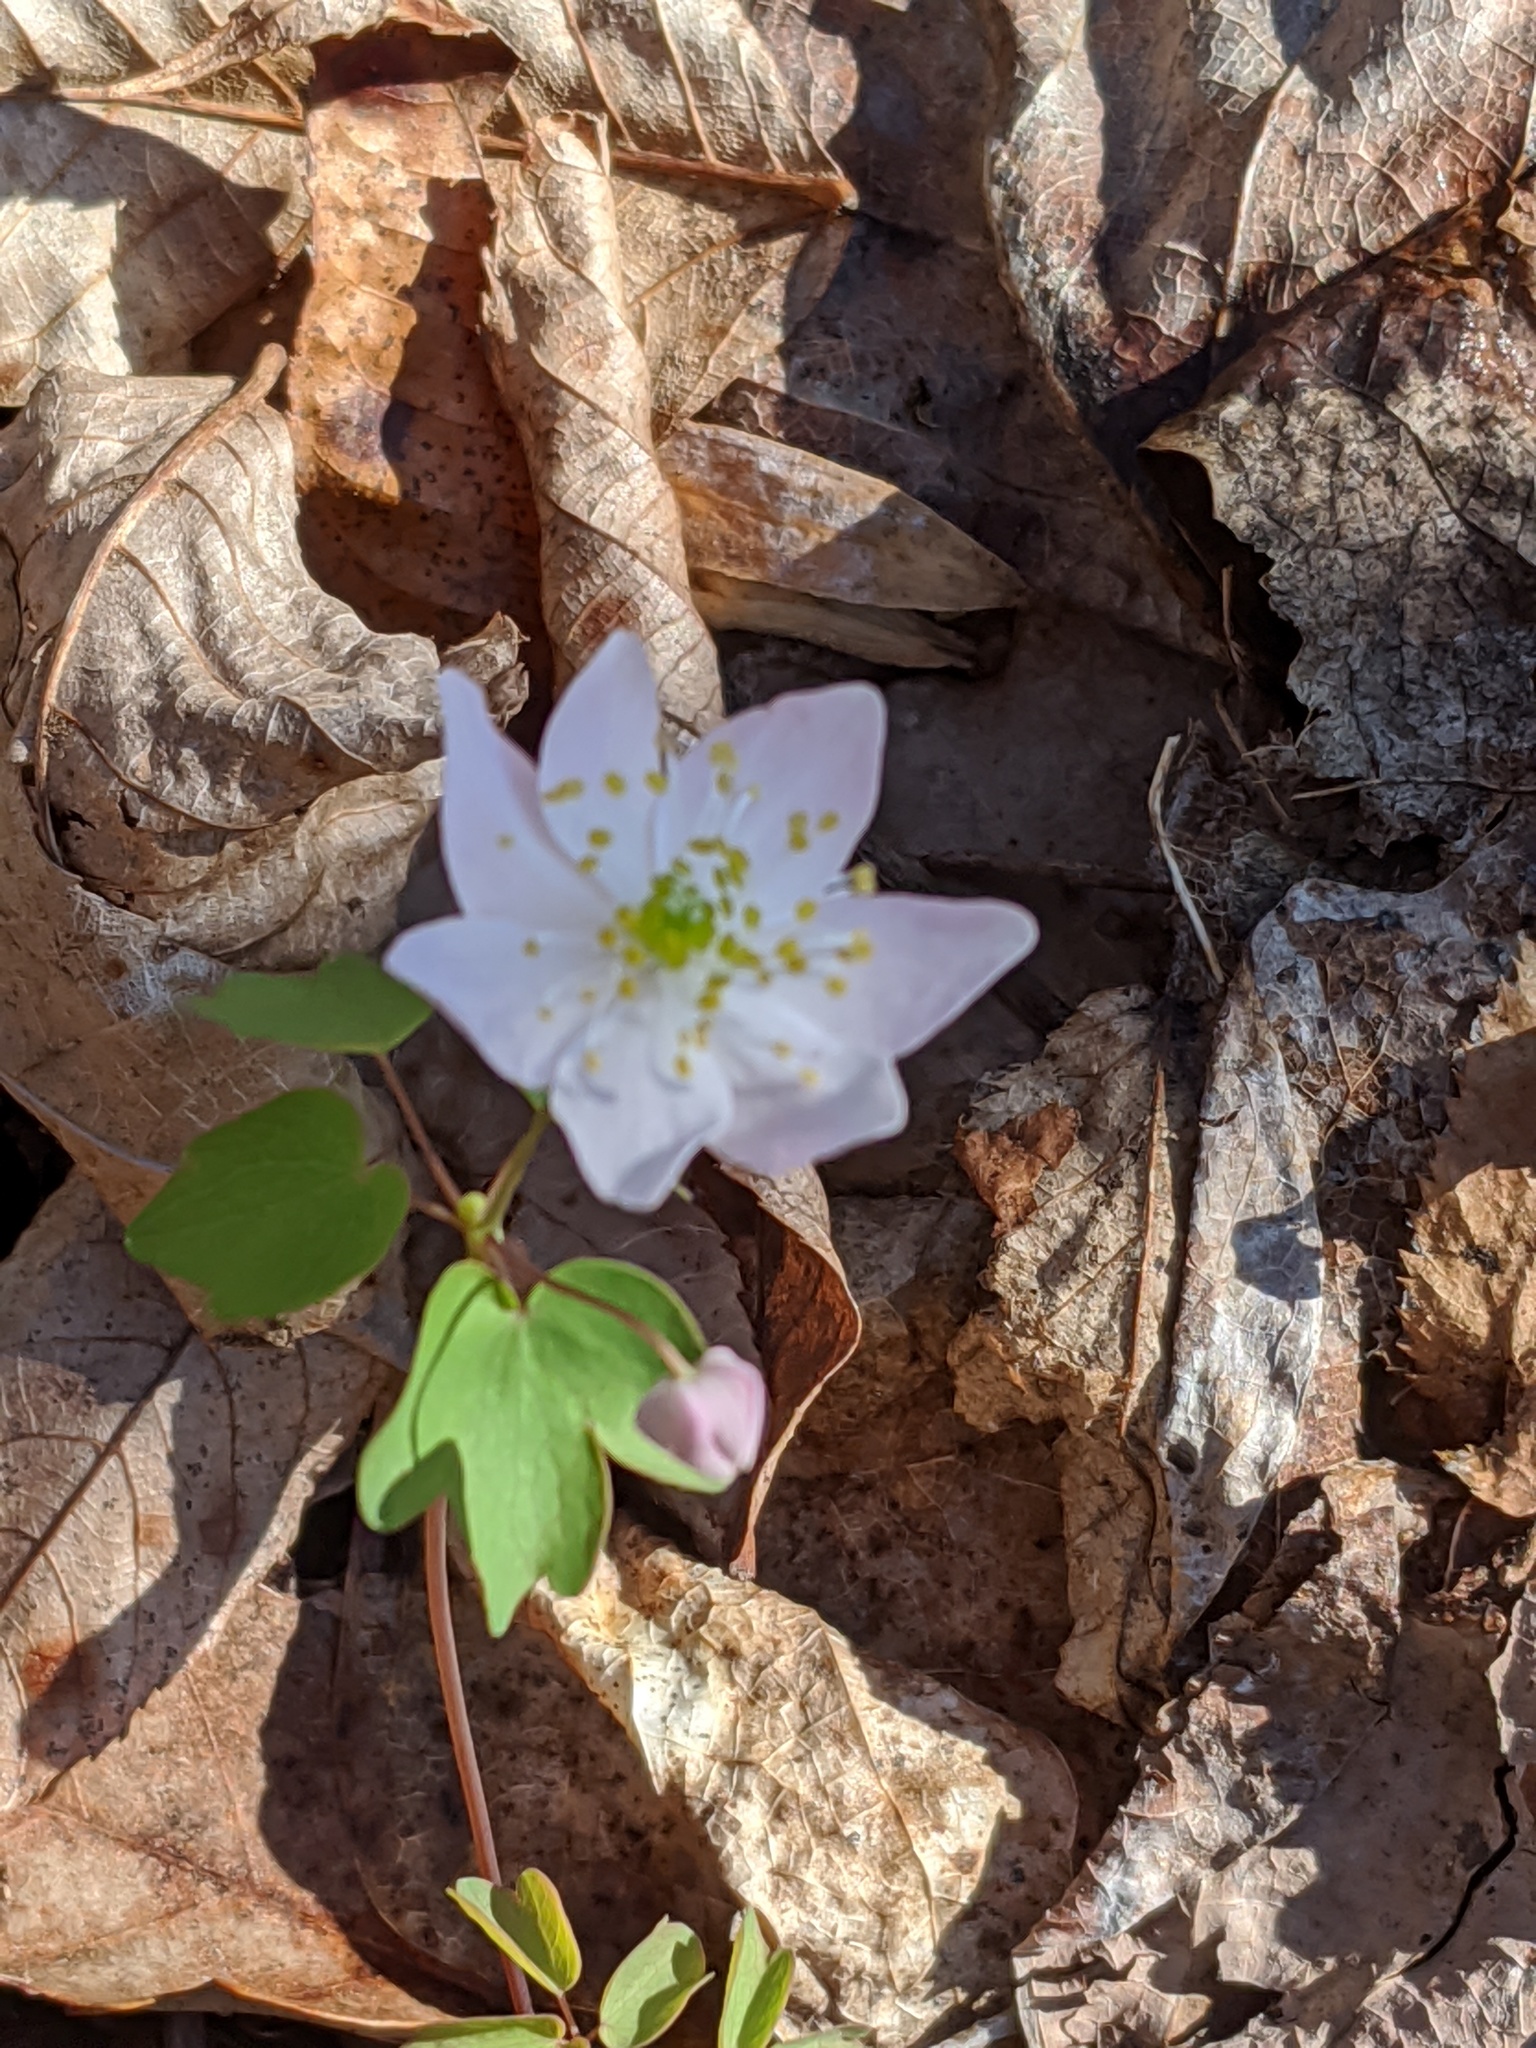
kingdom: Plantae
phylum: Tracheophyta
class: Magnoliopsida
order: Ranunculales
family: Ranunculaceae
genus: Thalictrum
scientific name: Thalictrum thalictroides
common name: Rue-anemone
